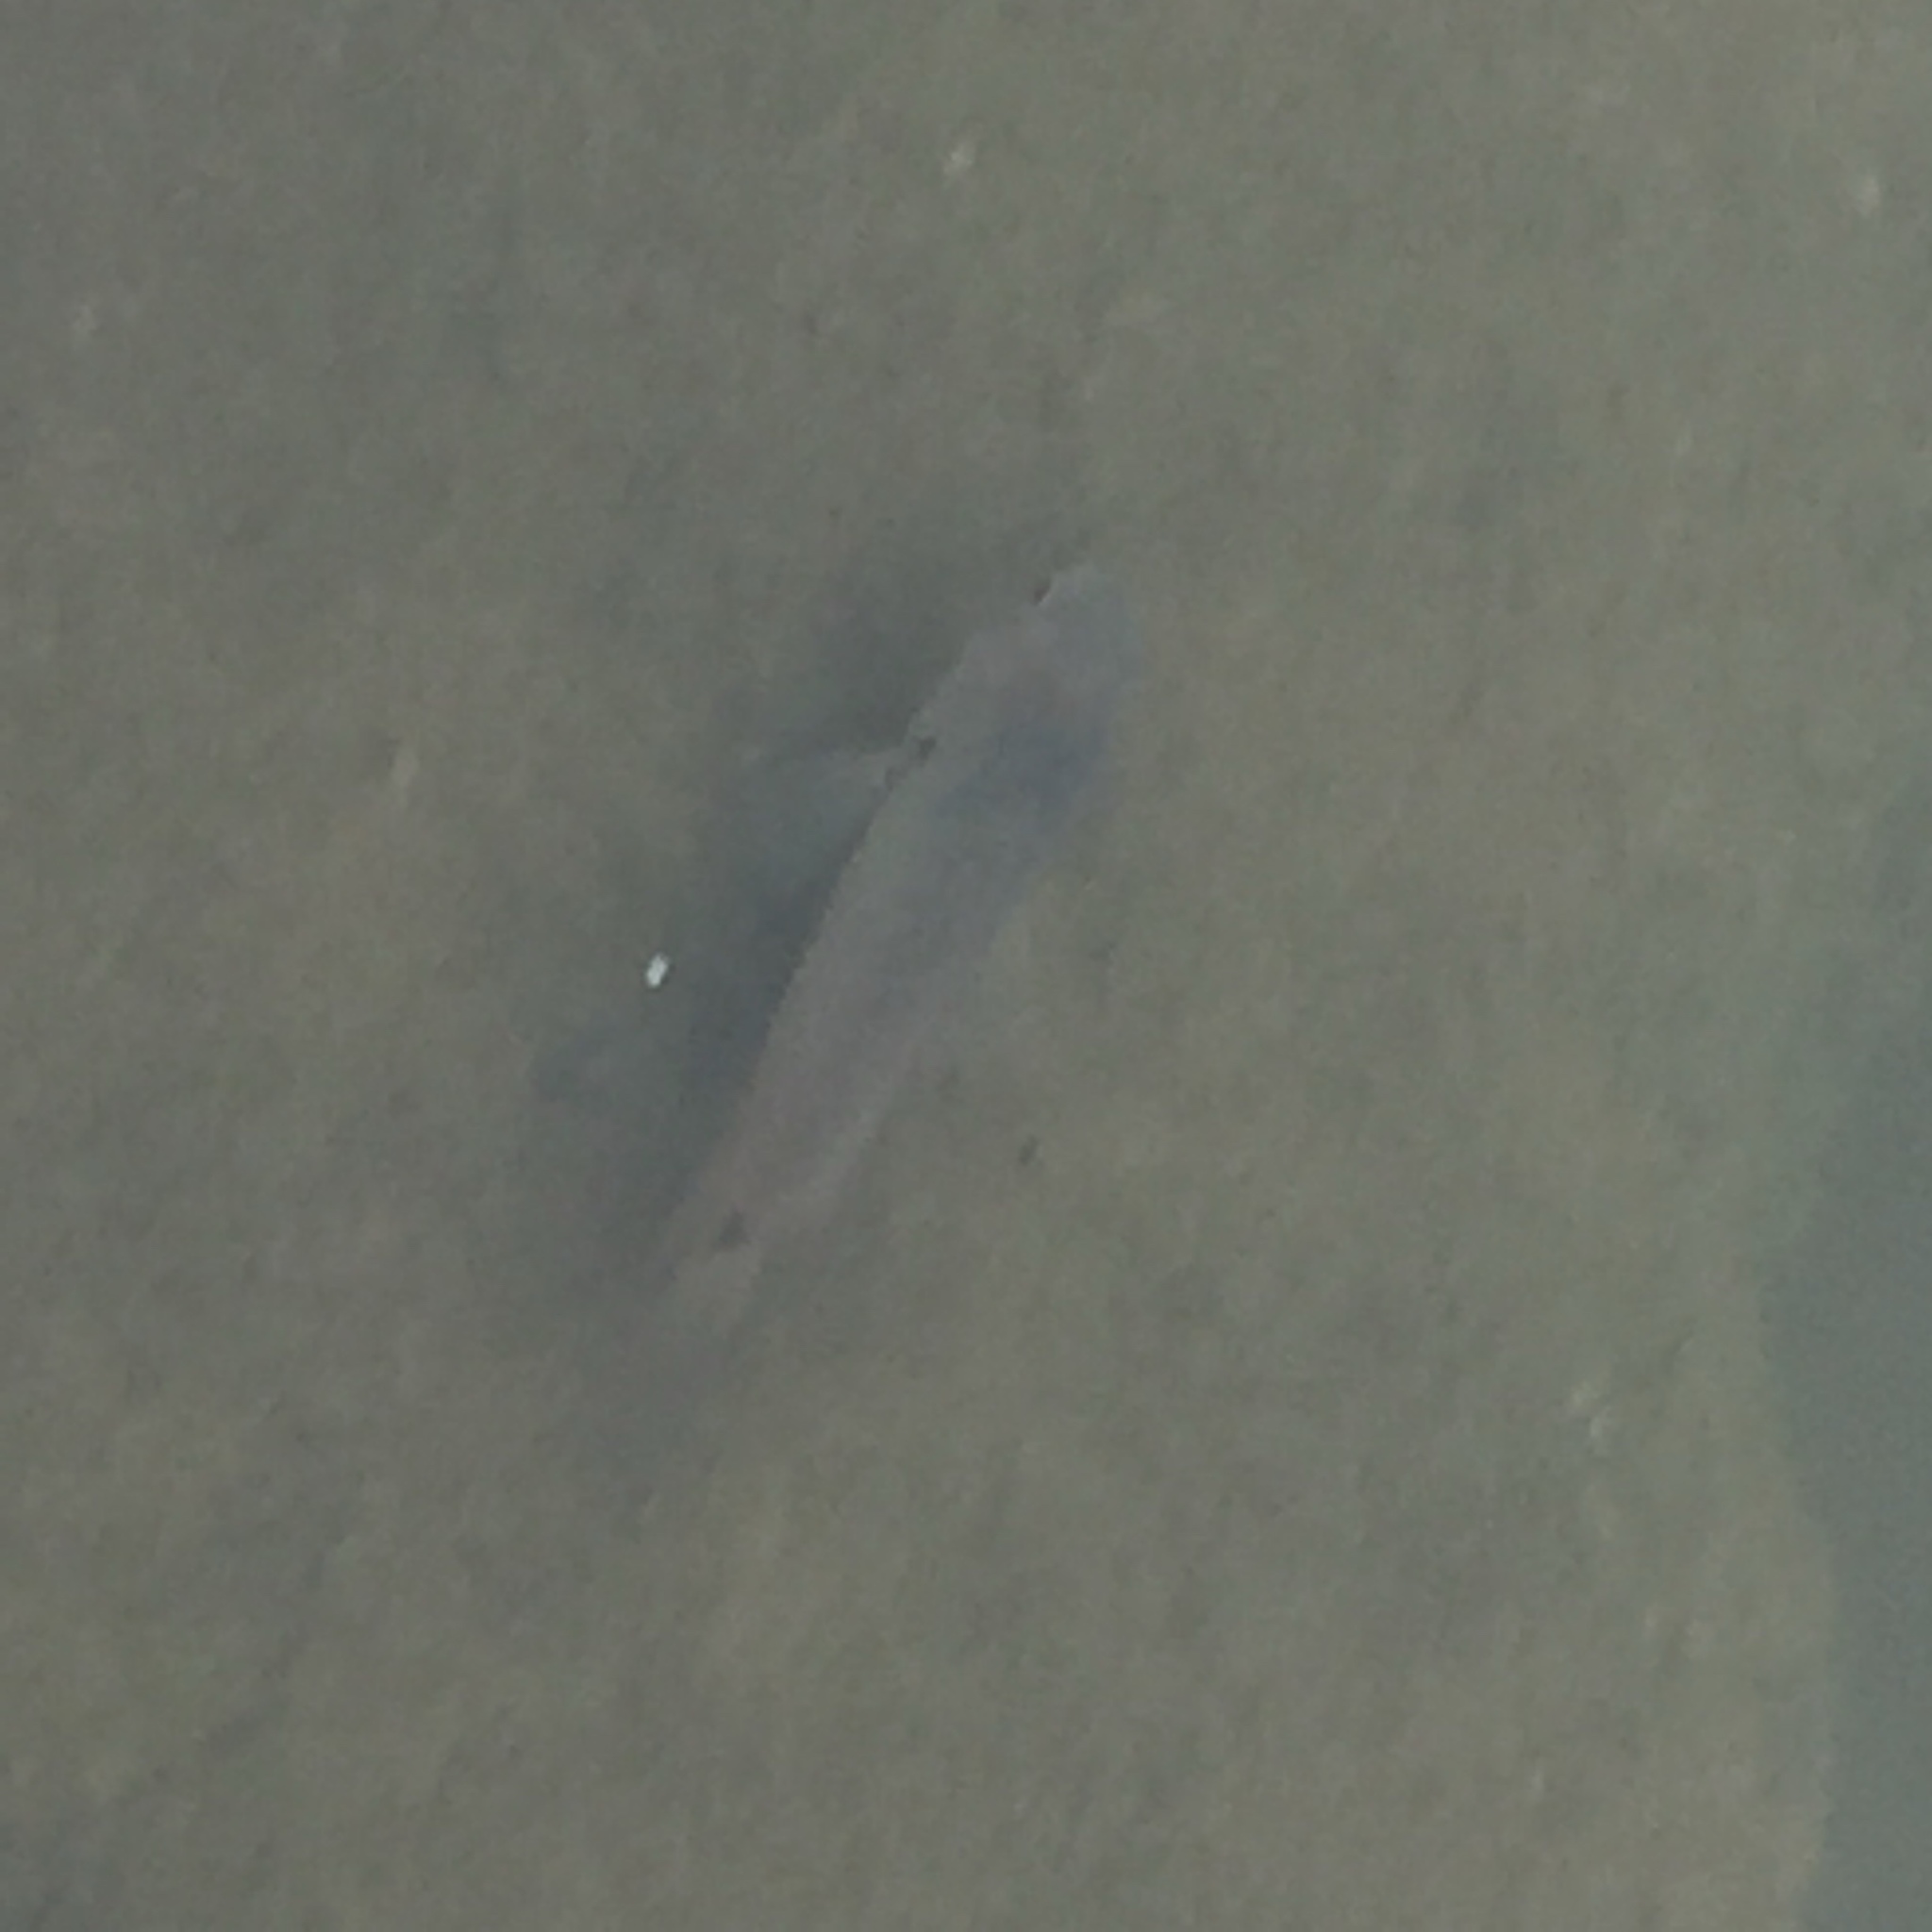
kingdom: Animalia
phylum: Chordata
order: Perciformes
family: Anabantidae
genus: Anabas
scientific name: Anabas testudineus
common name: Climbing perch
